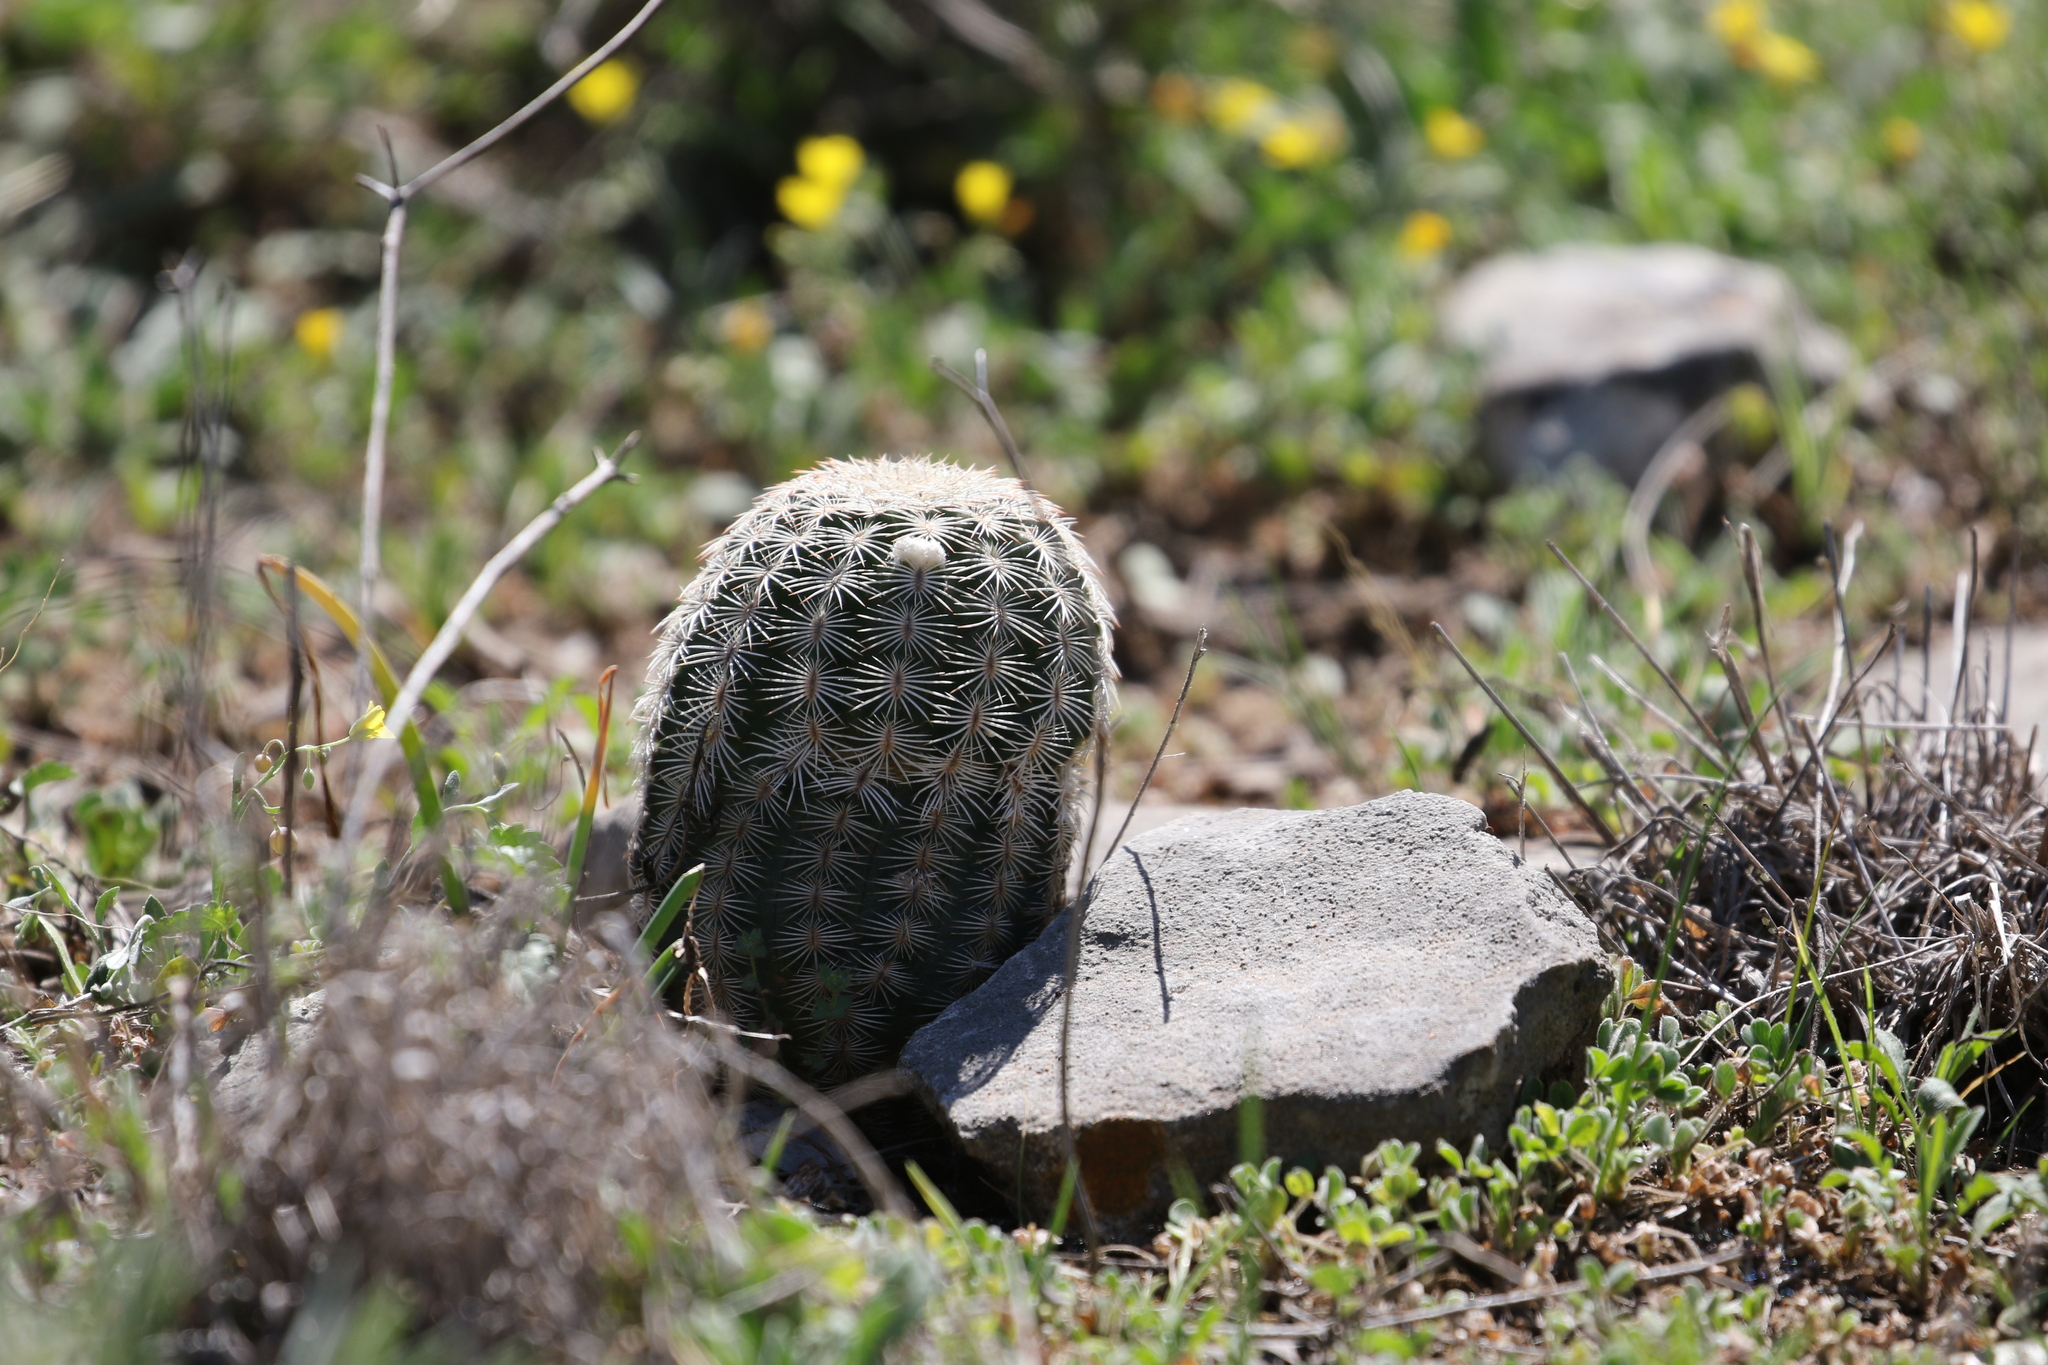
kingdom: Plantae
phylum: Tracheophyta
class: Magnoliopsida
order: Caryophyllales
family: Cactaceae
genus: Echinocereus
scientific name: Echinocereus reichenbachii
